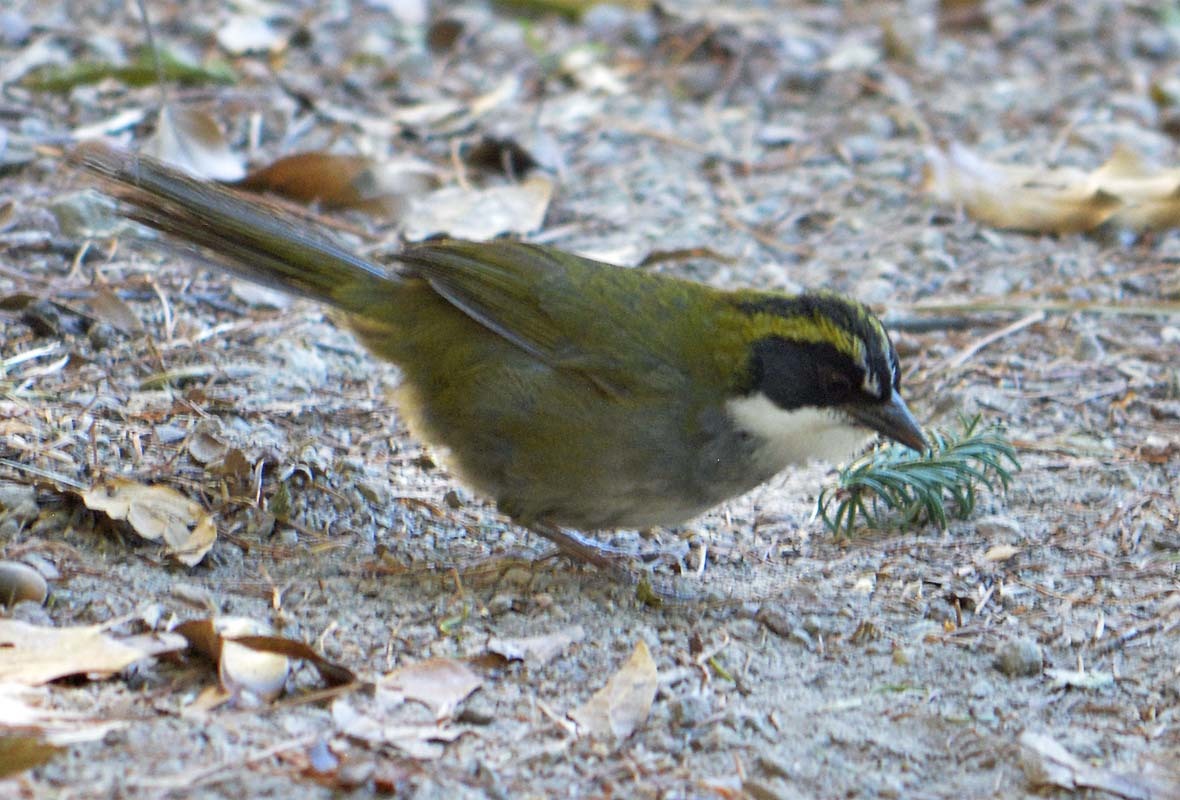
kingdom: Animalia
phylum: Chordata
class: Aves
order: Passeriformes
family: Passerellidae
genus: Arremon
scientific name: Arremon virenticeps
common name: Green-striped brushfinch
